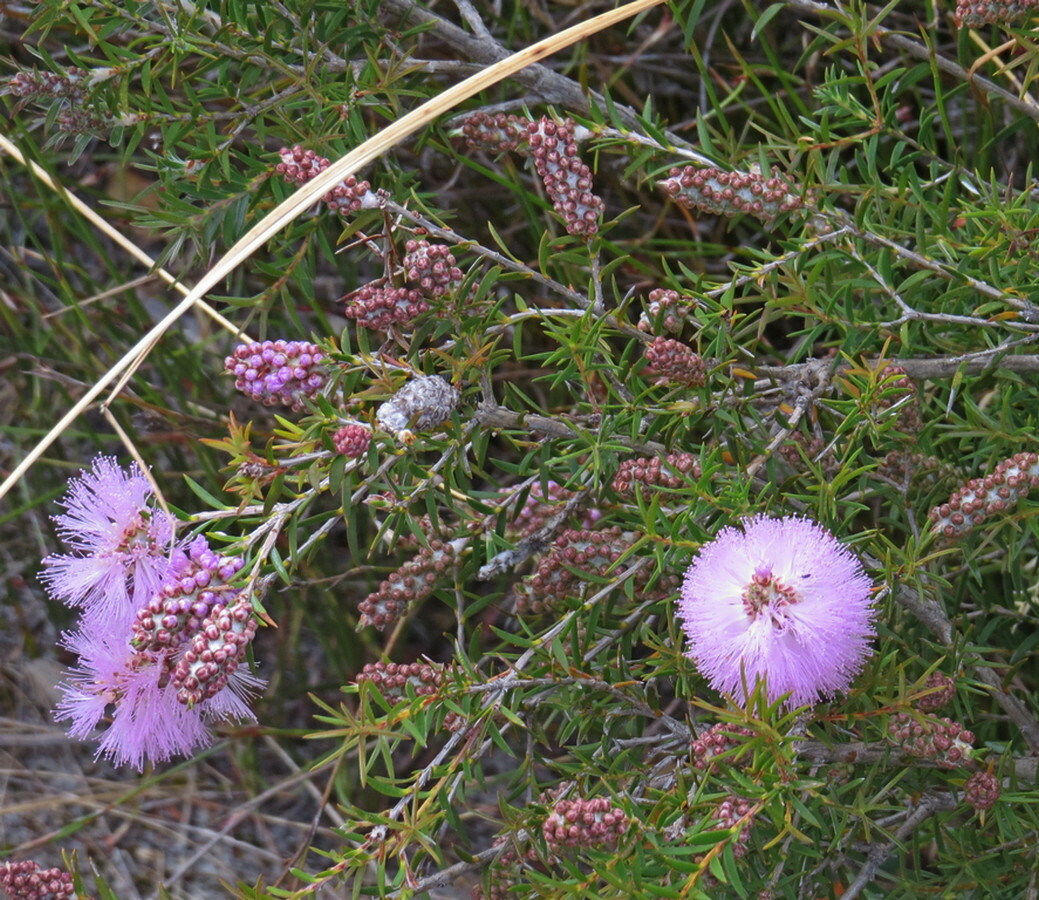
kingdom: Plantae
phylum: Tracheophyta
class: Magnoliopsida
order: Myrtales
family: Myrtaceae
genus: Melaleuca
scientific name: Melaleuca striata
